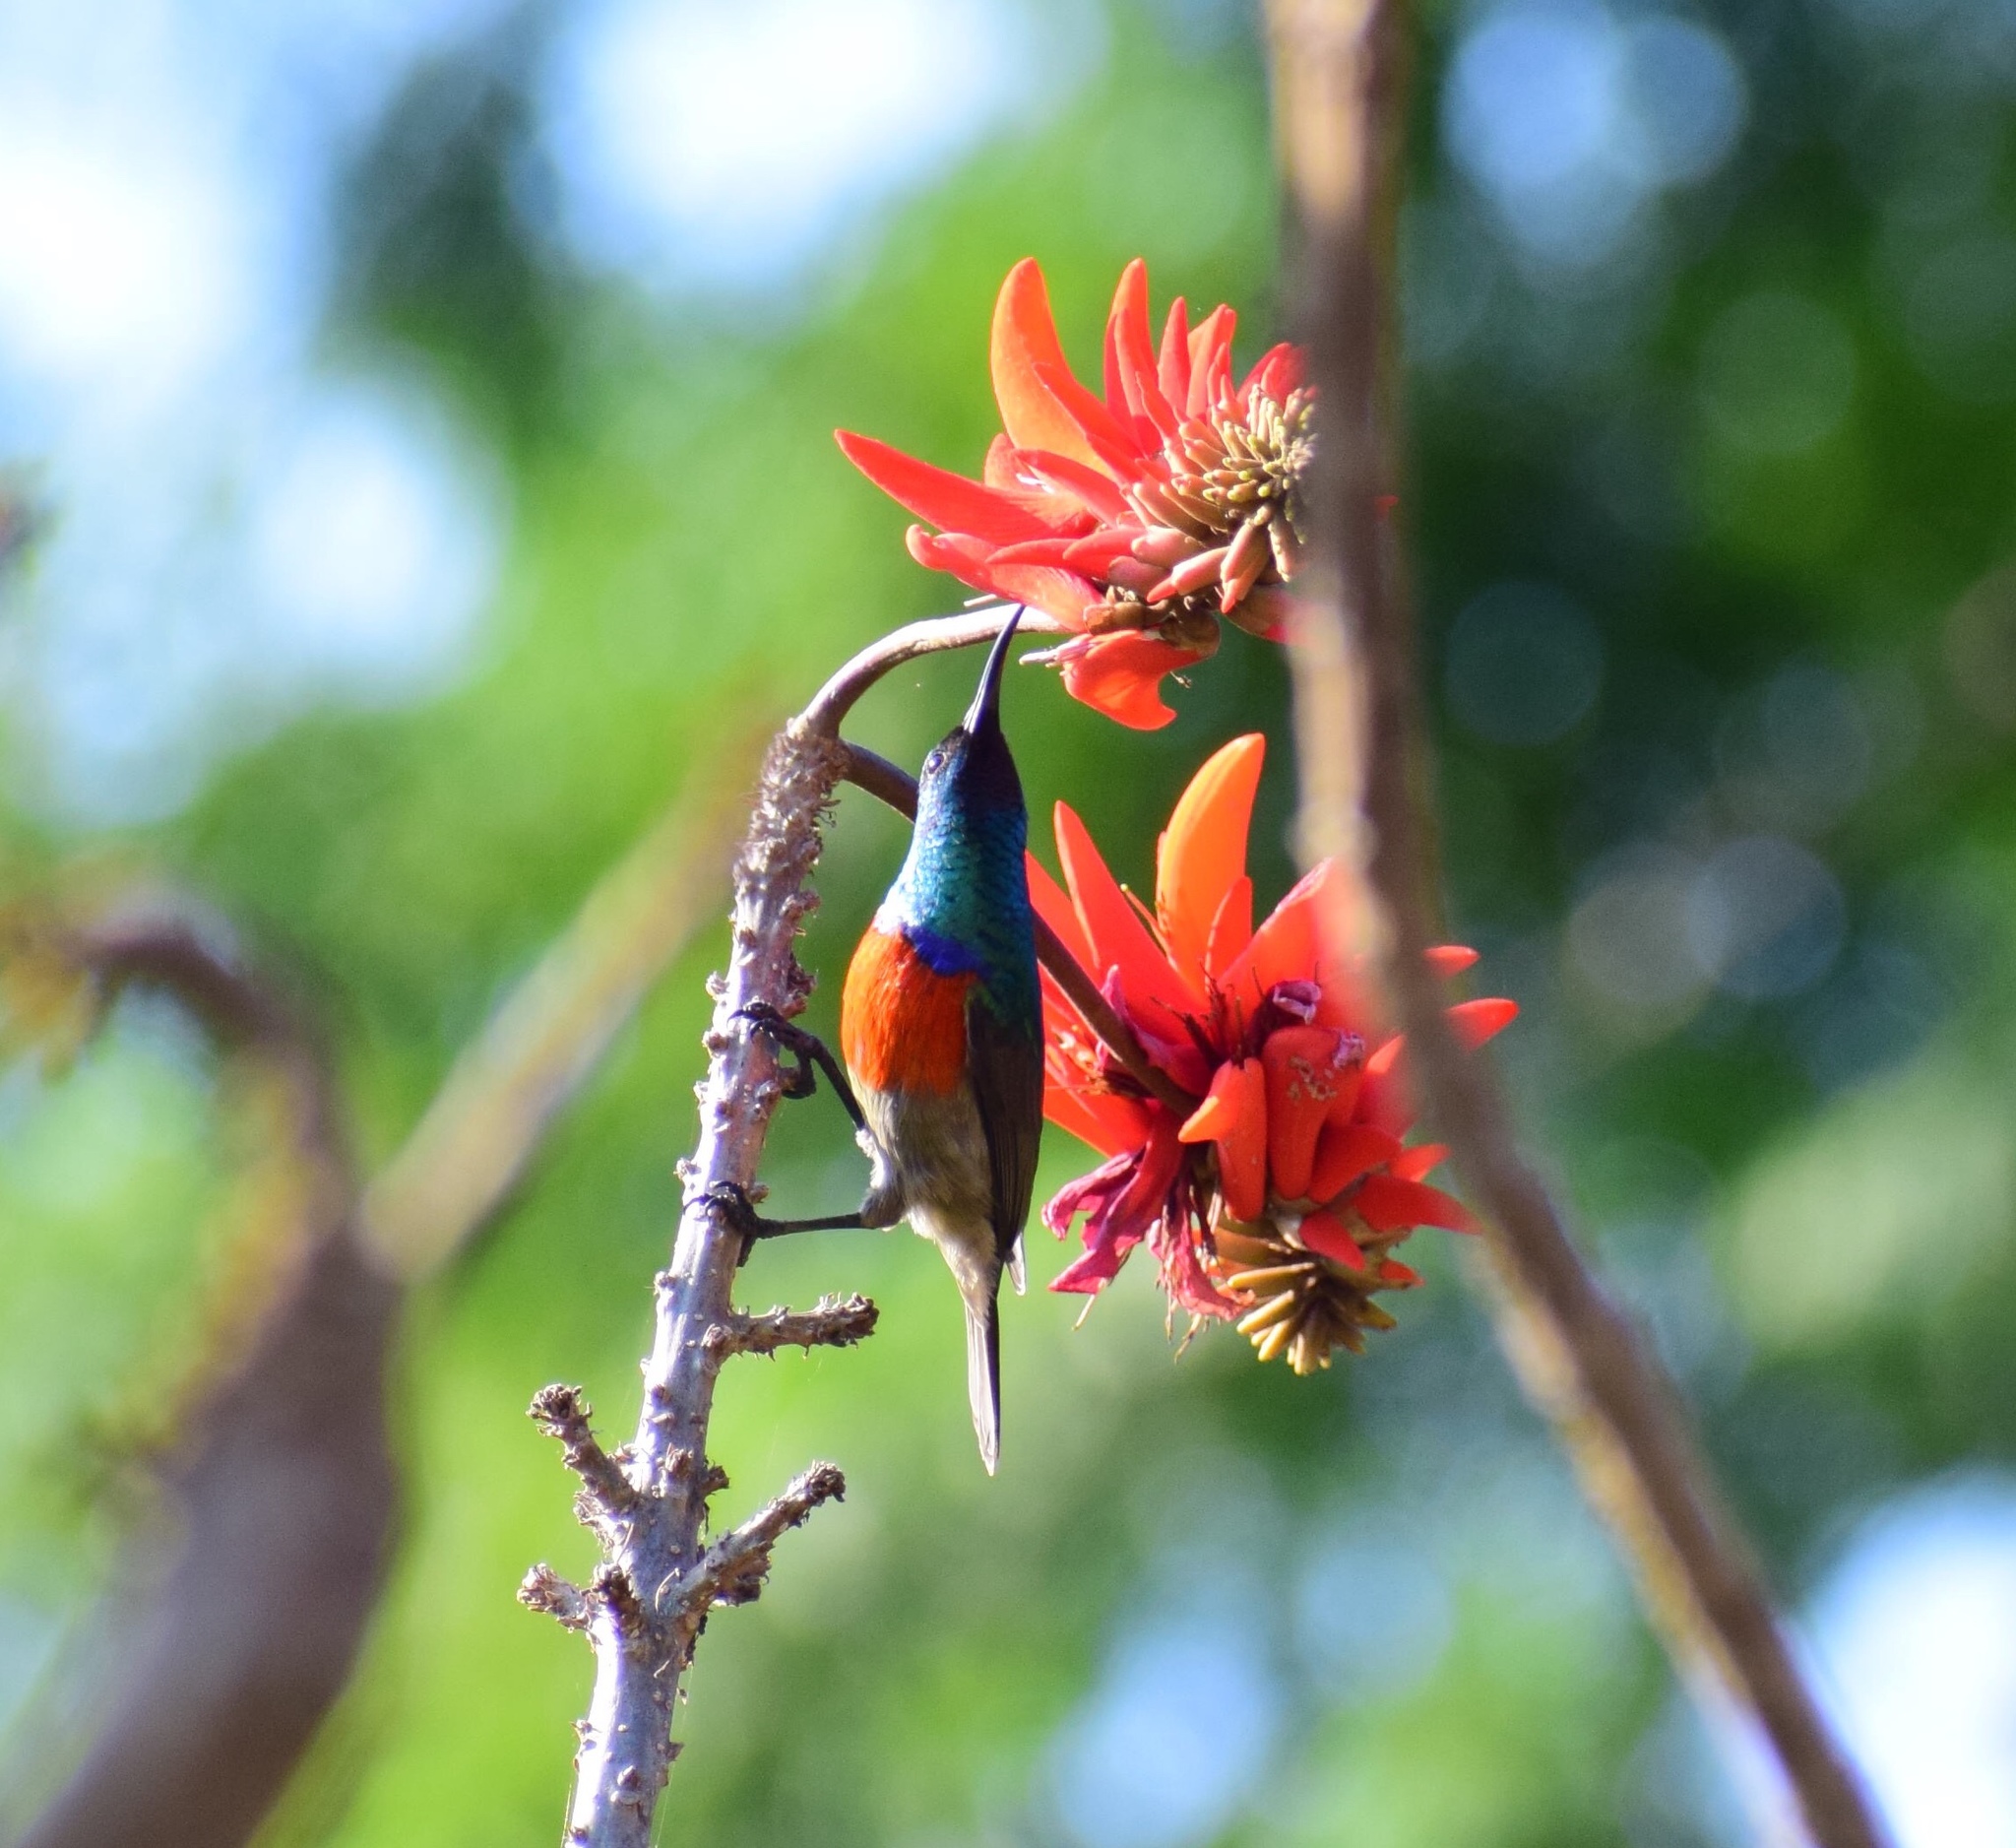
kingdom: Animalia
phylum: Chordata
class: Aves
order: Passeriformes
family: Nectariniidae
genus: Cinnyris
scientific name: Cinnyris afer
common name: Greater double-collared sunbird
